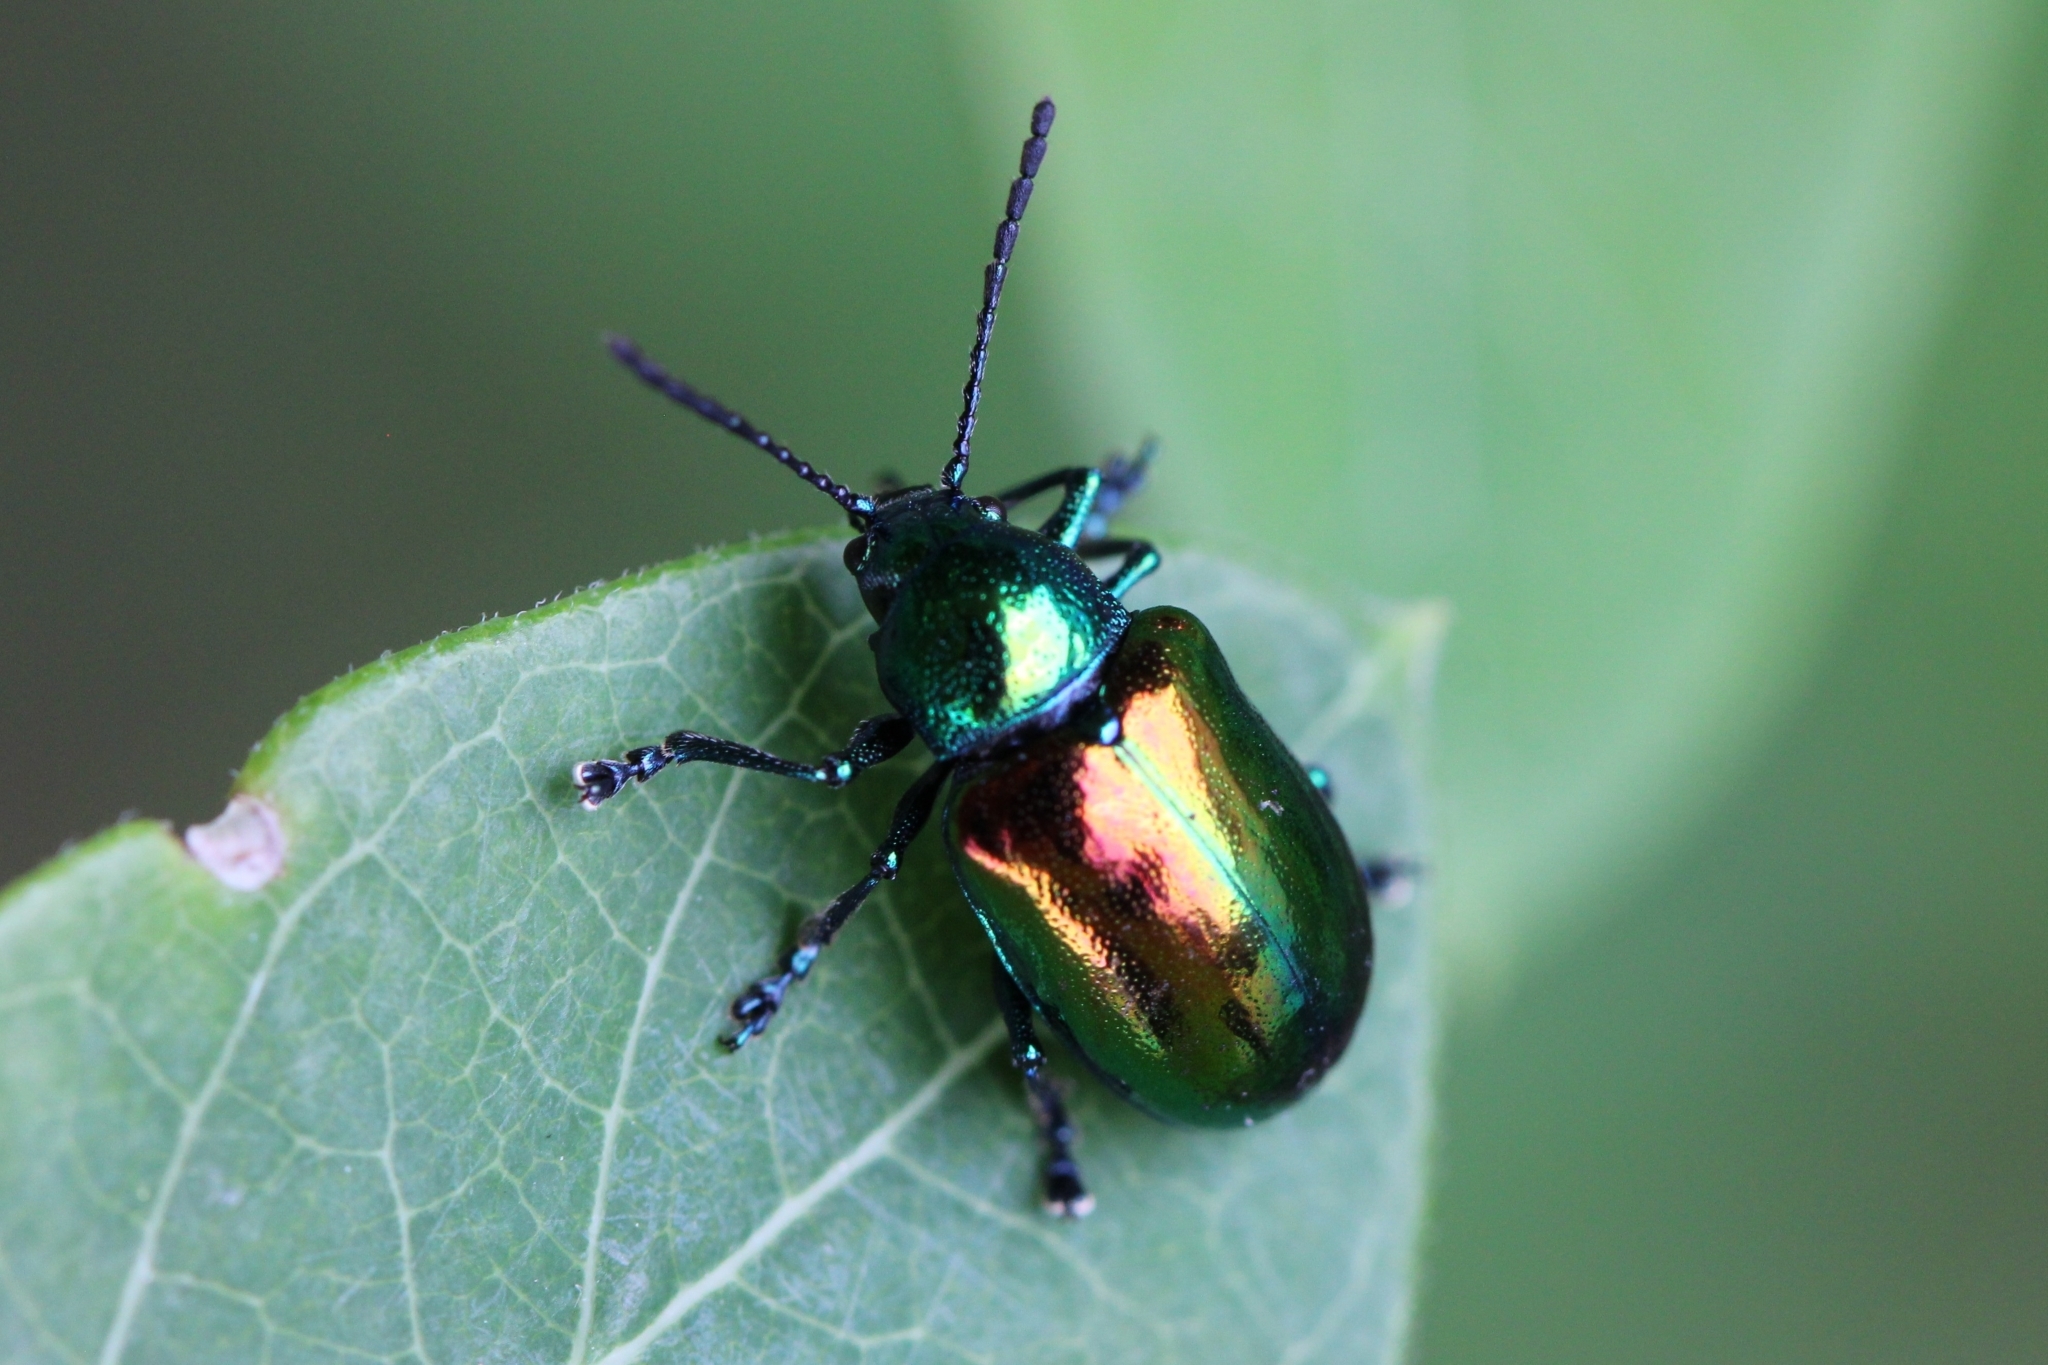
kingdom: Animalia
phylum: Arthropoda
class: Insecta
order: Coleoptera
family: Chrysomelidae
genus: Chrysochus
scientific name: Chrysochus auratus
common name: Dogbane leaf beetle
